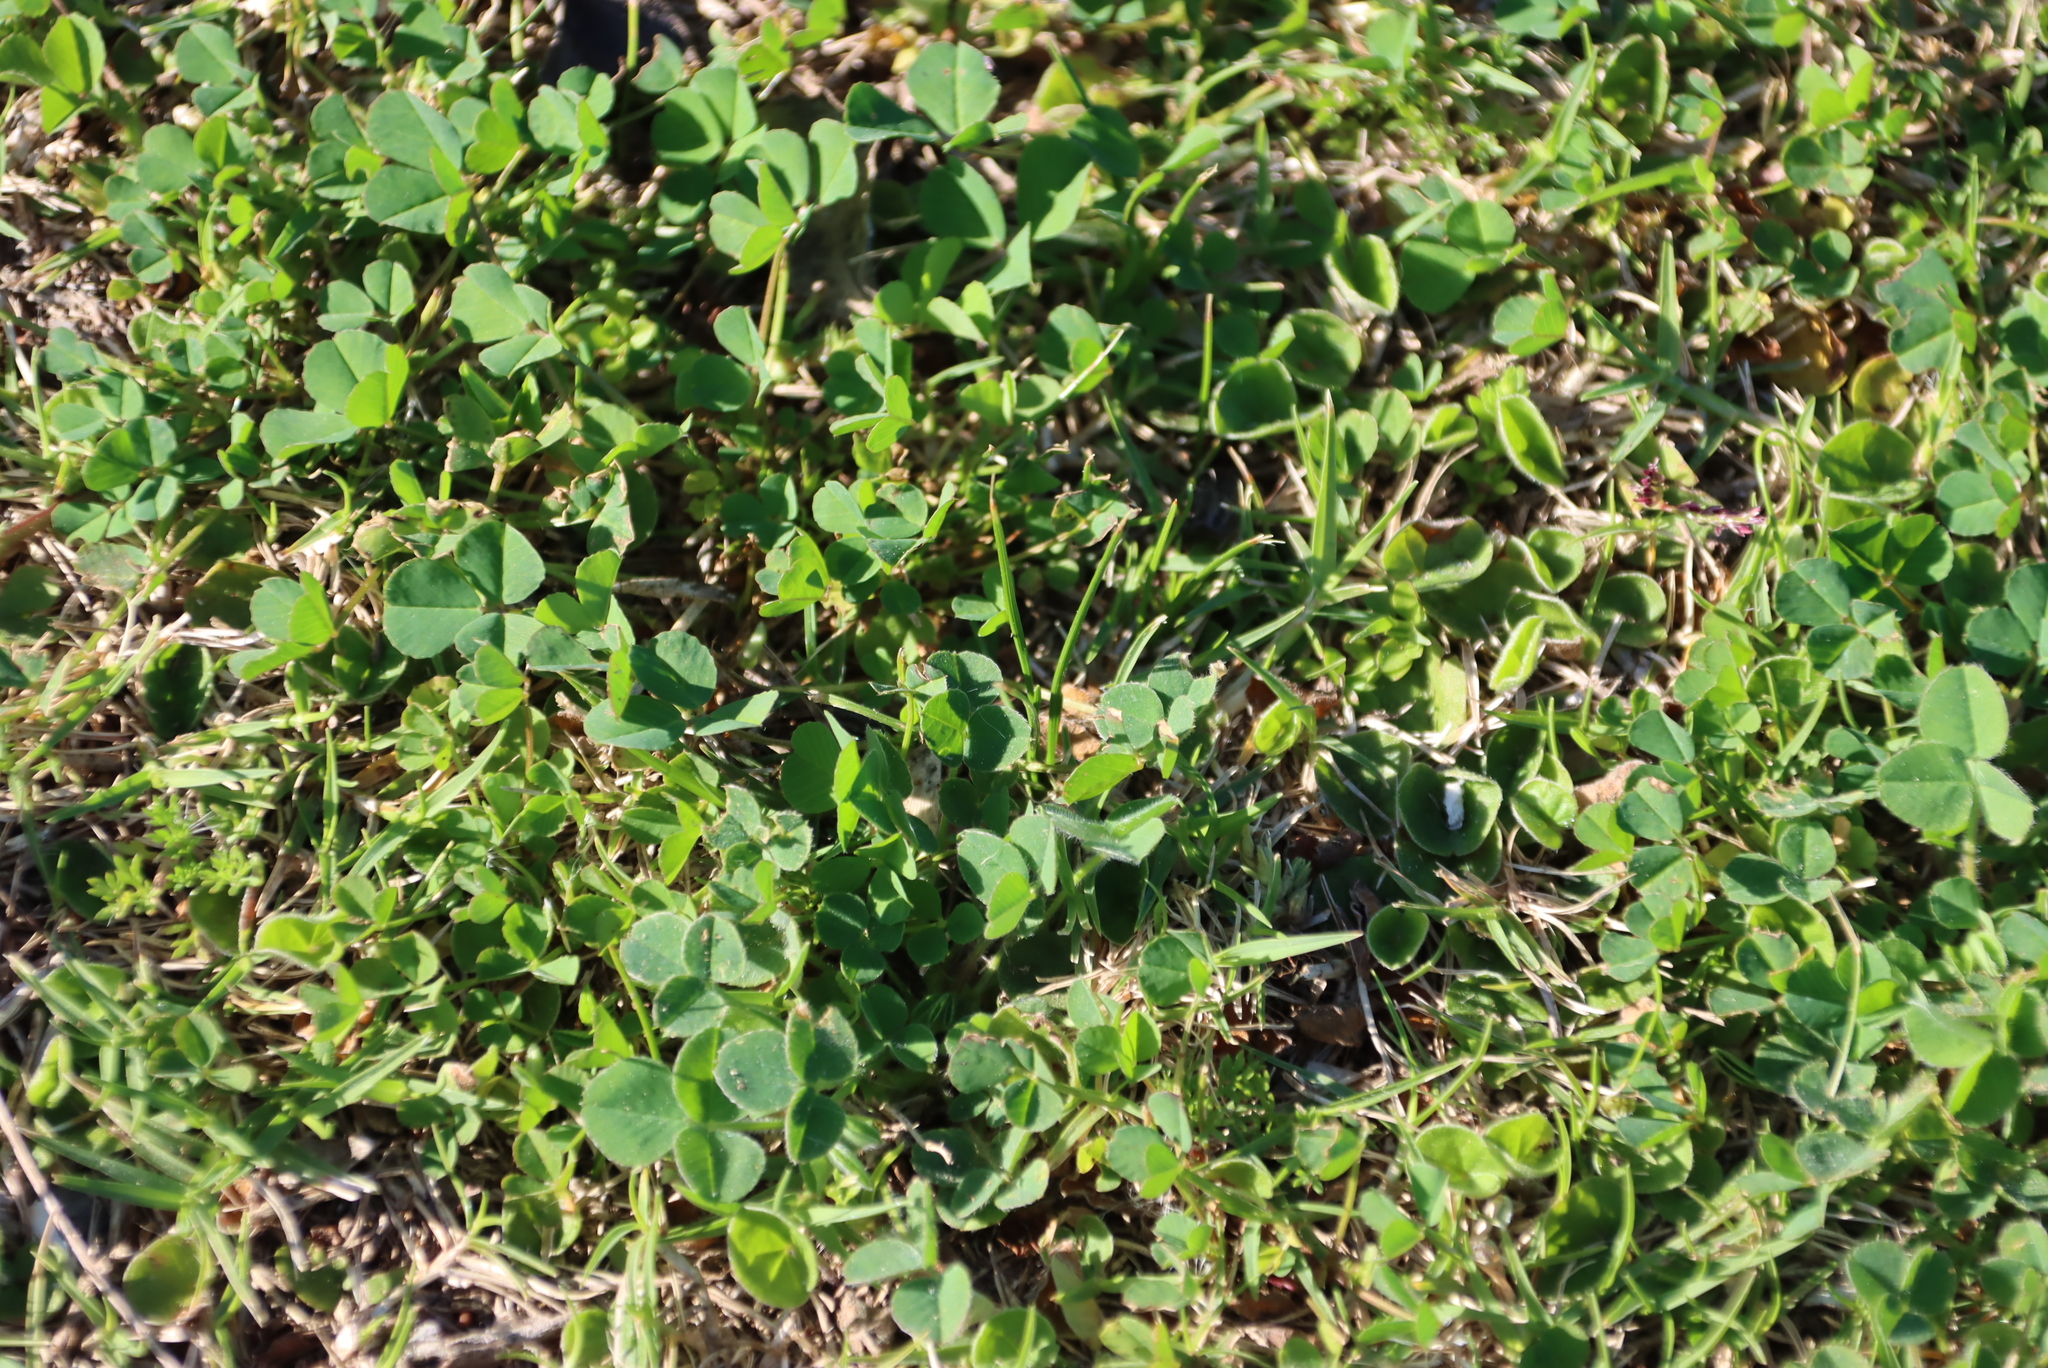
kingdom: Plantae
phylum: Tracheophyta
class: Magnoliopsida
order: Fabales
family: Fabaceae
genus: Medicago
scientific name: Medicago polymorpha
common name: Burclover
